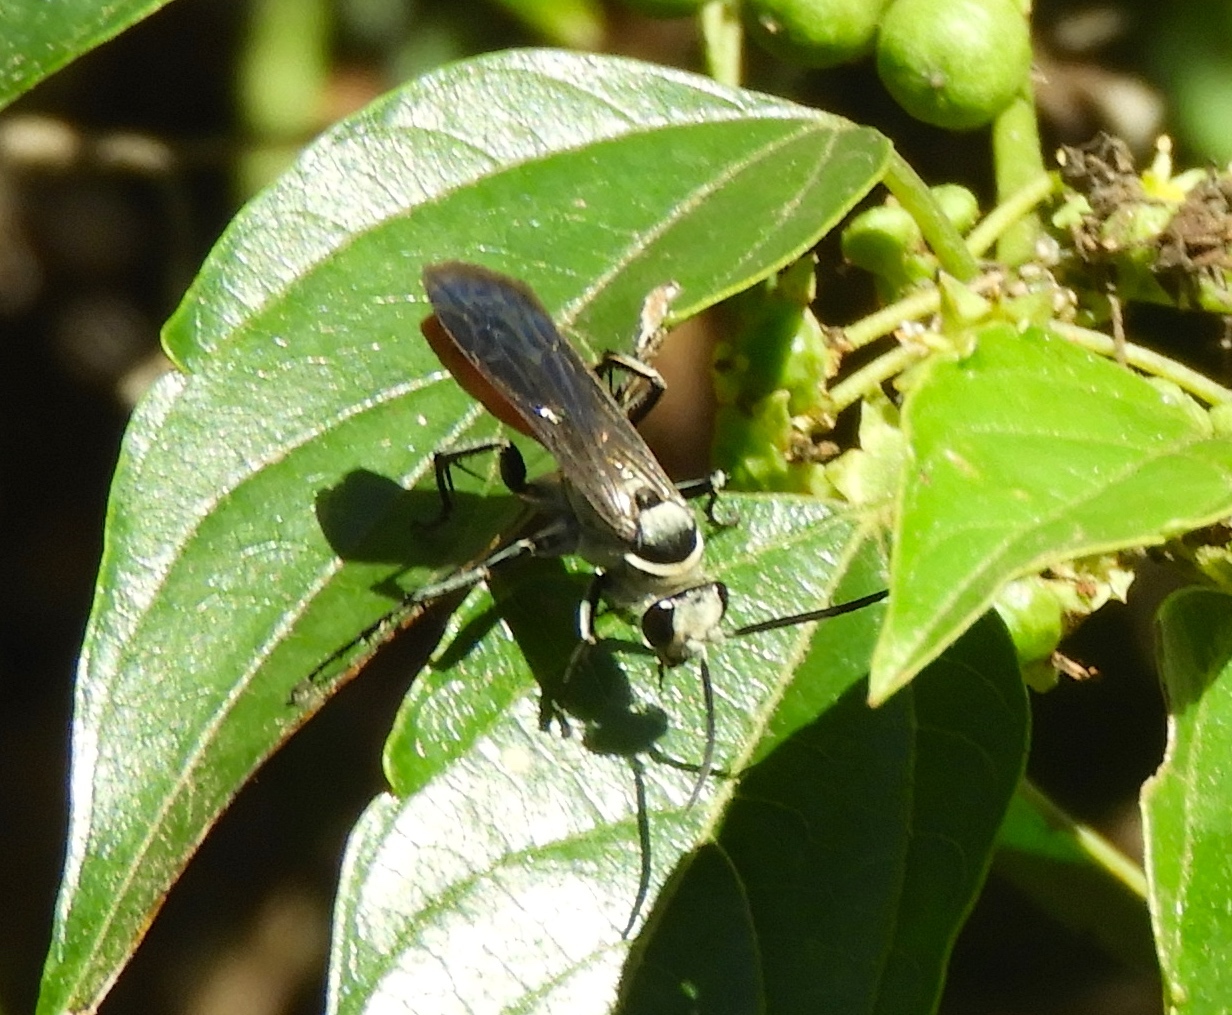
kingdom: Animalia
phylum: Arthropoda
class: Insecta
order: Hymenoptera
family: Pompilidae
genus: Xerochares
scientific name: Xerochares expulsus
